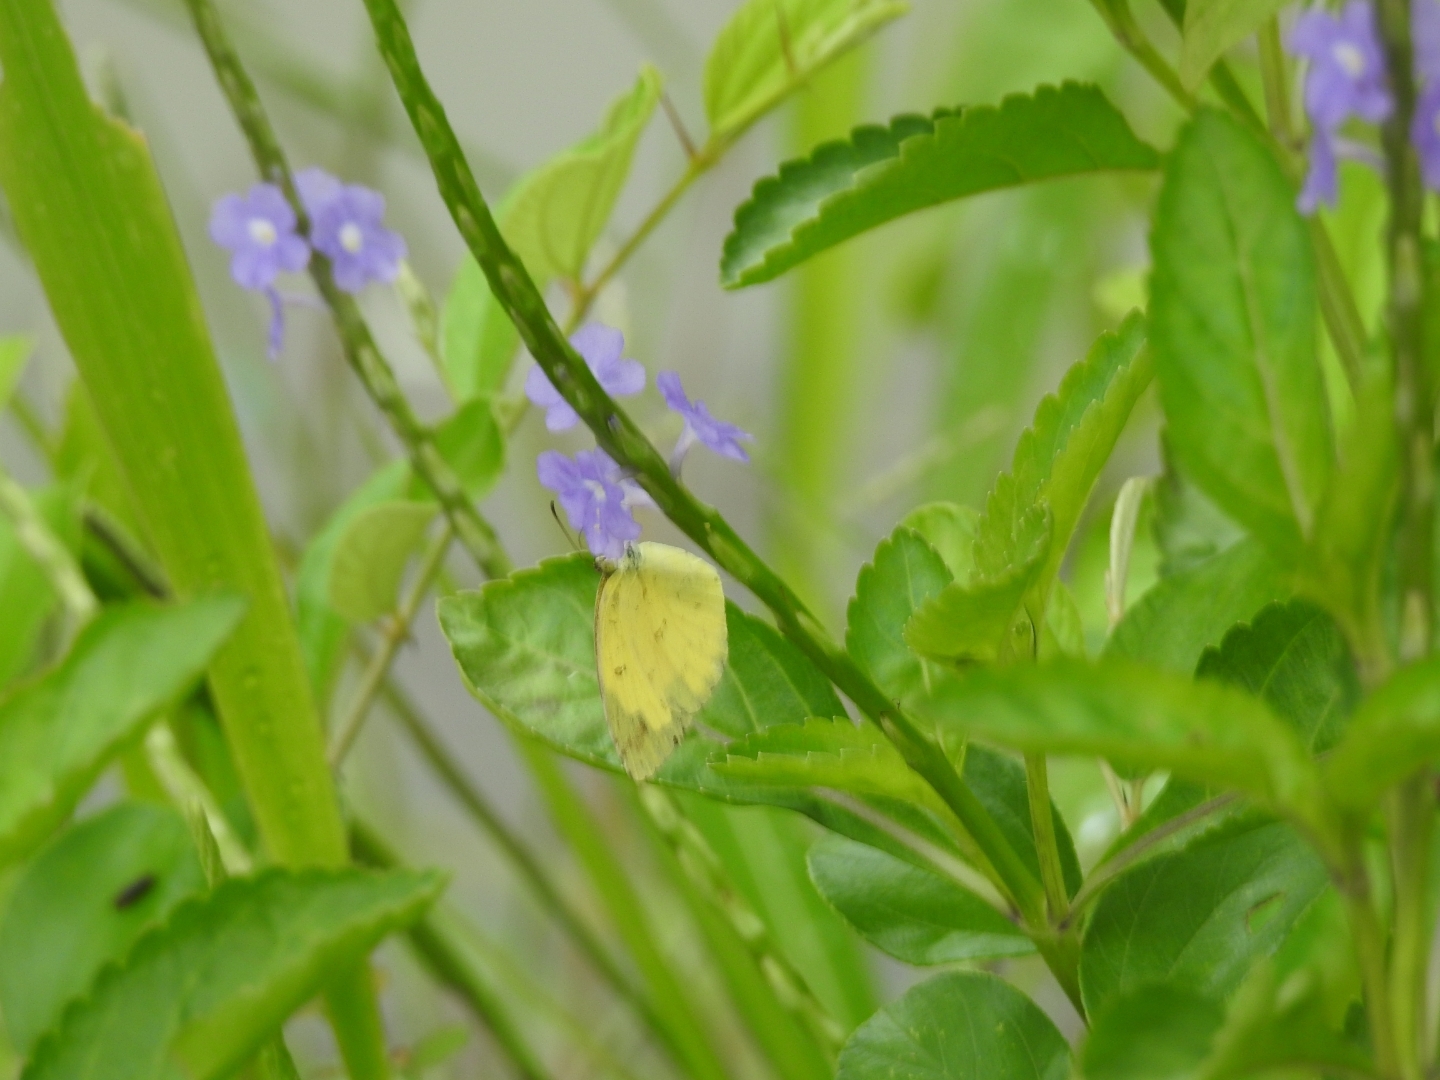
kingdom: Animalia
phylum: Arthropoda
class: Insecta
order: Lepidoptera
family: Pieridae
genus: Eurema
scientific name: Eurema hecabe
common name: Pale grass yellow
